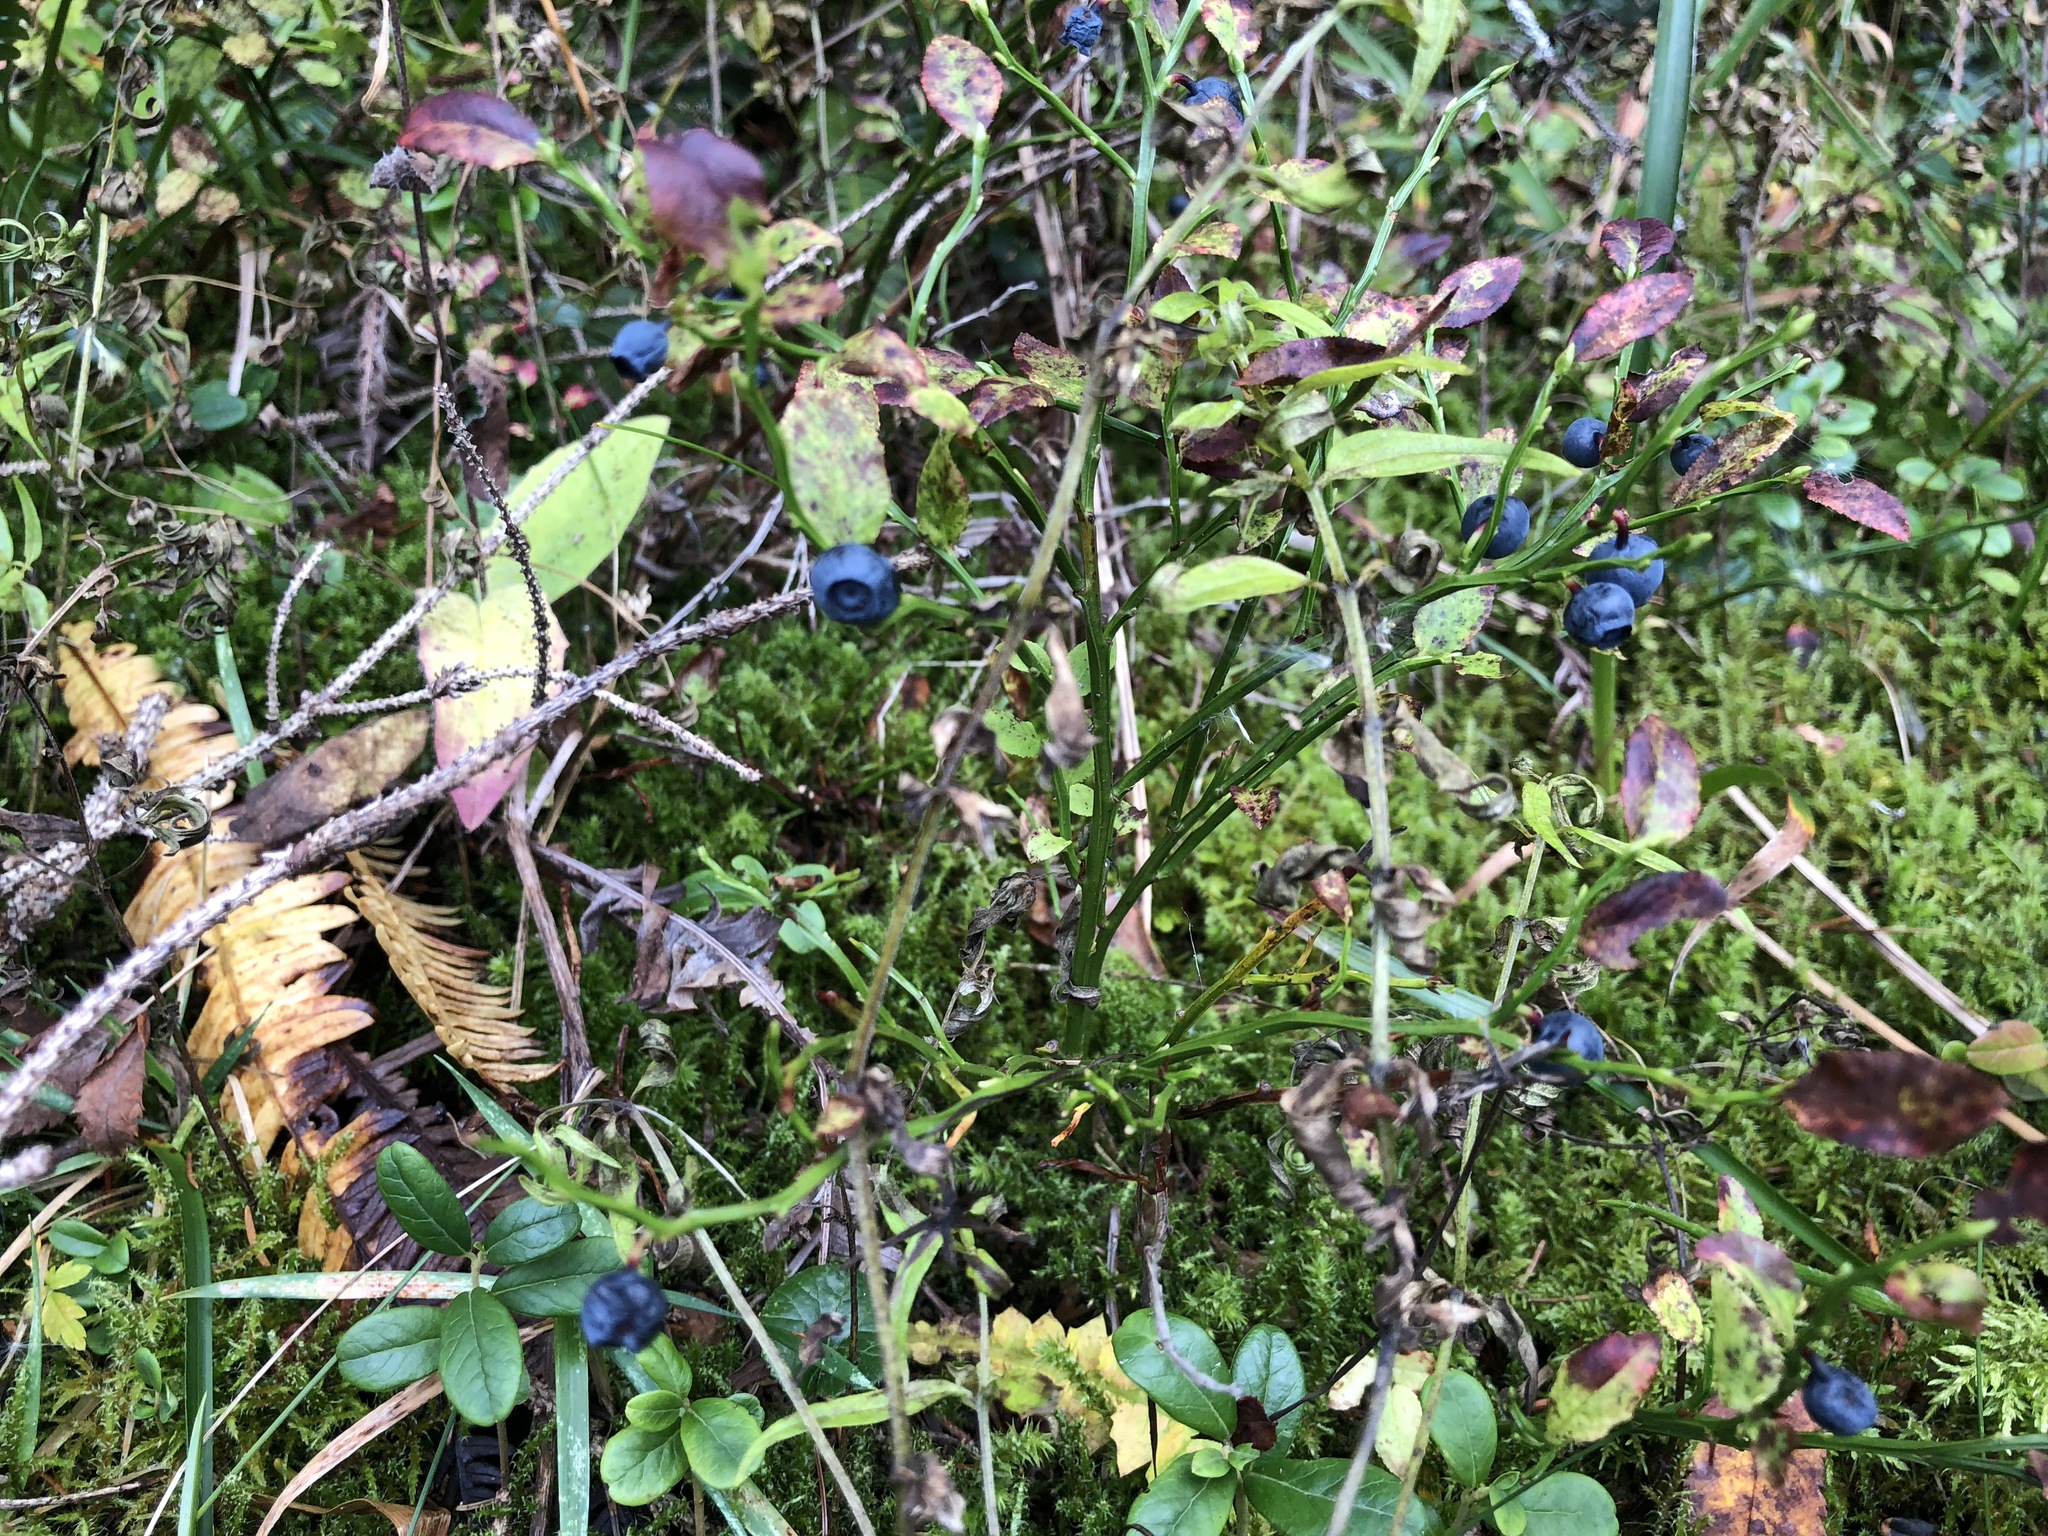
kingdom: Plantae
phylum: Tracheophyta
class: Magnoliopsida
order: Ericales
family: Ericaceae
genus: Vaccinium
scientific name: Vaccinium myrtillus
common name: Bilberry
